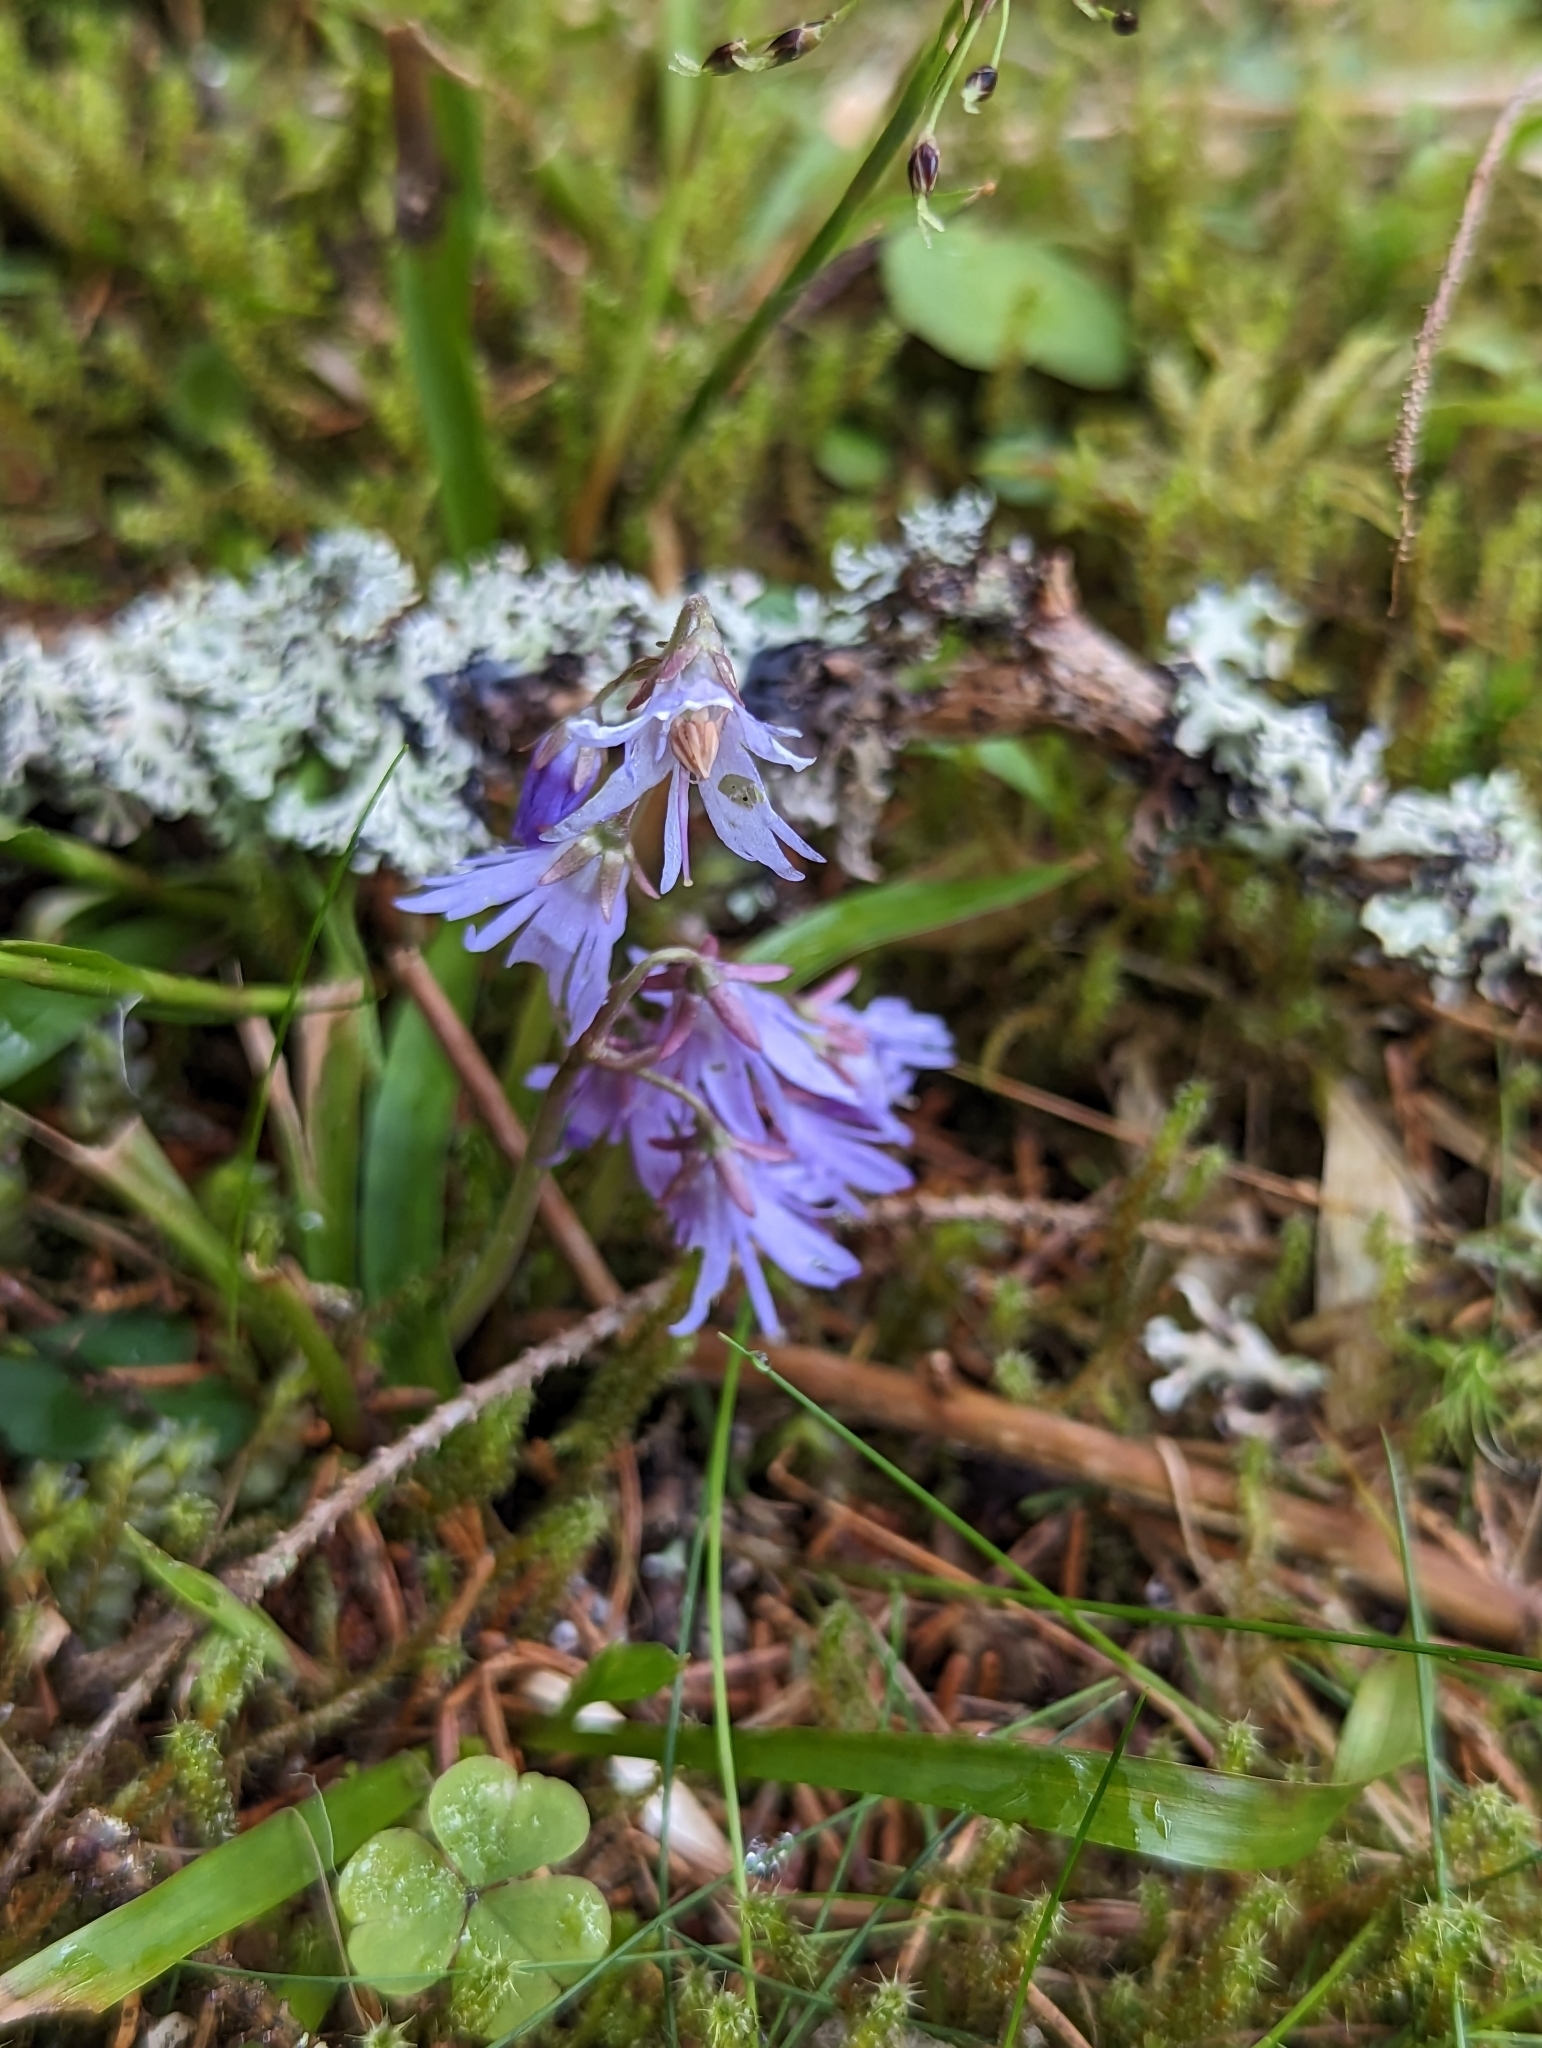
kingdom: Plantae
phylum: Tracheophyta
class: Magnoliopsida
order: Ericales
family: Primulaceae
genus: Soldanella
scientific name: Soldanella montana
